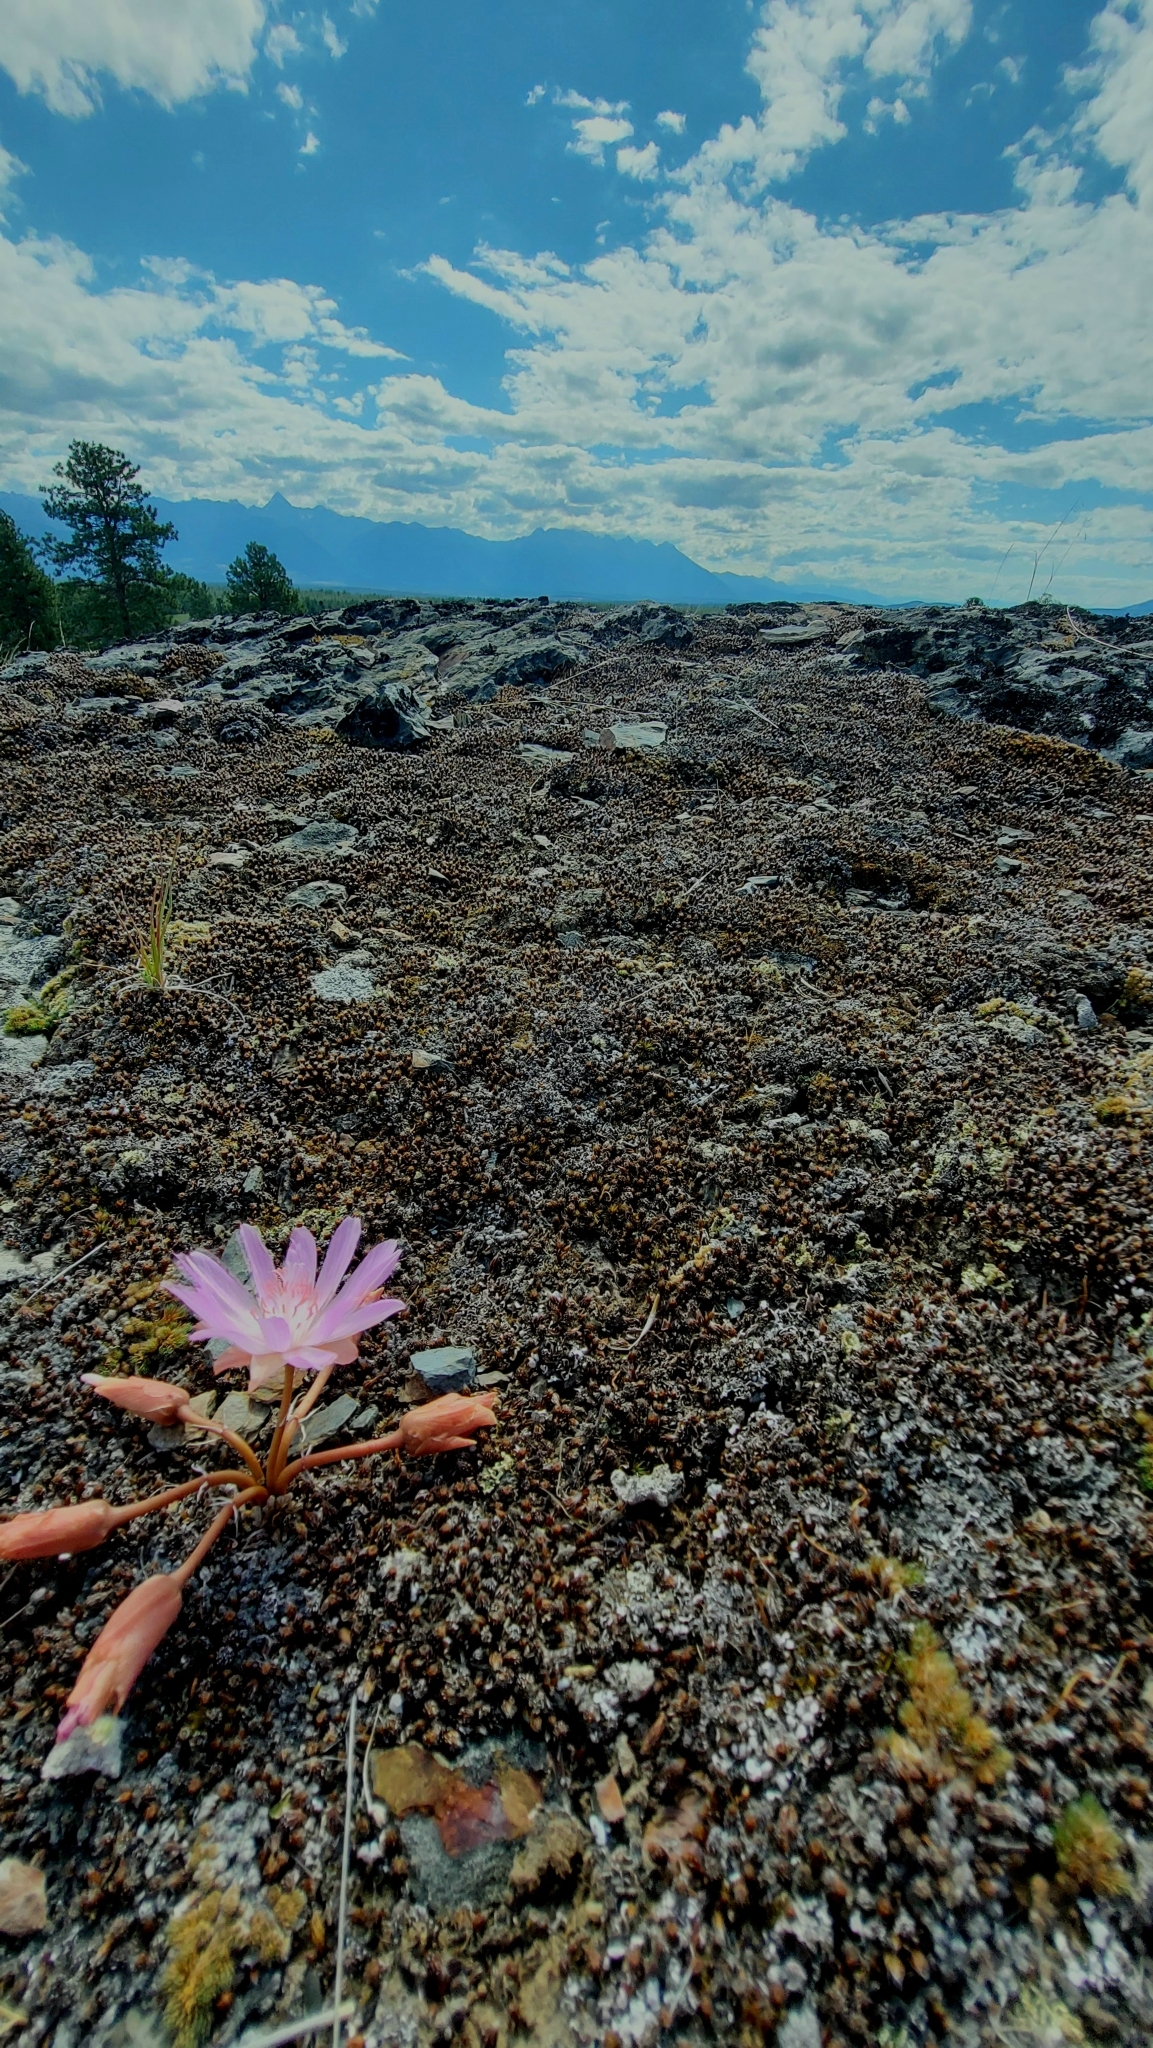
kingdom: Plantae
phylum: Tracheophyta
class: Magnoliopsida
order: Caryophyllales
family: Montiaceae
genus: Lewisia
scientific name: Lewisia rediviva
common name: Bitter-root
